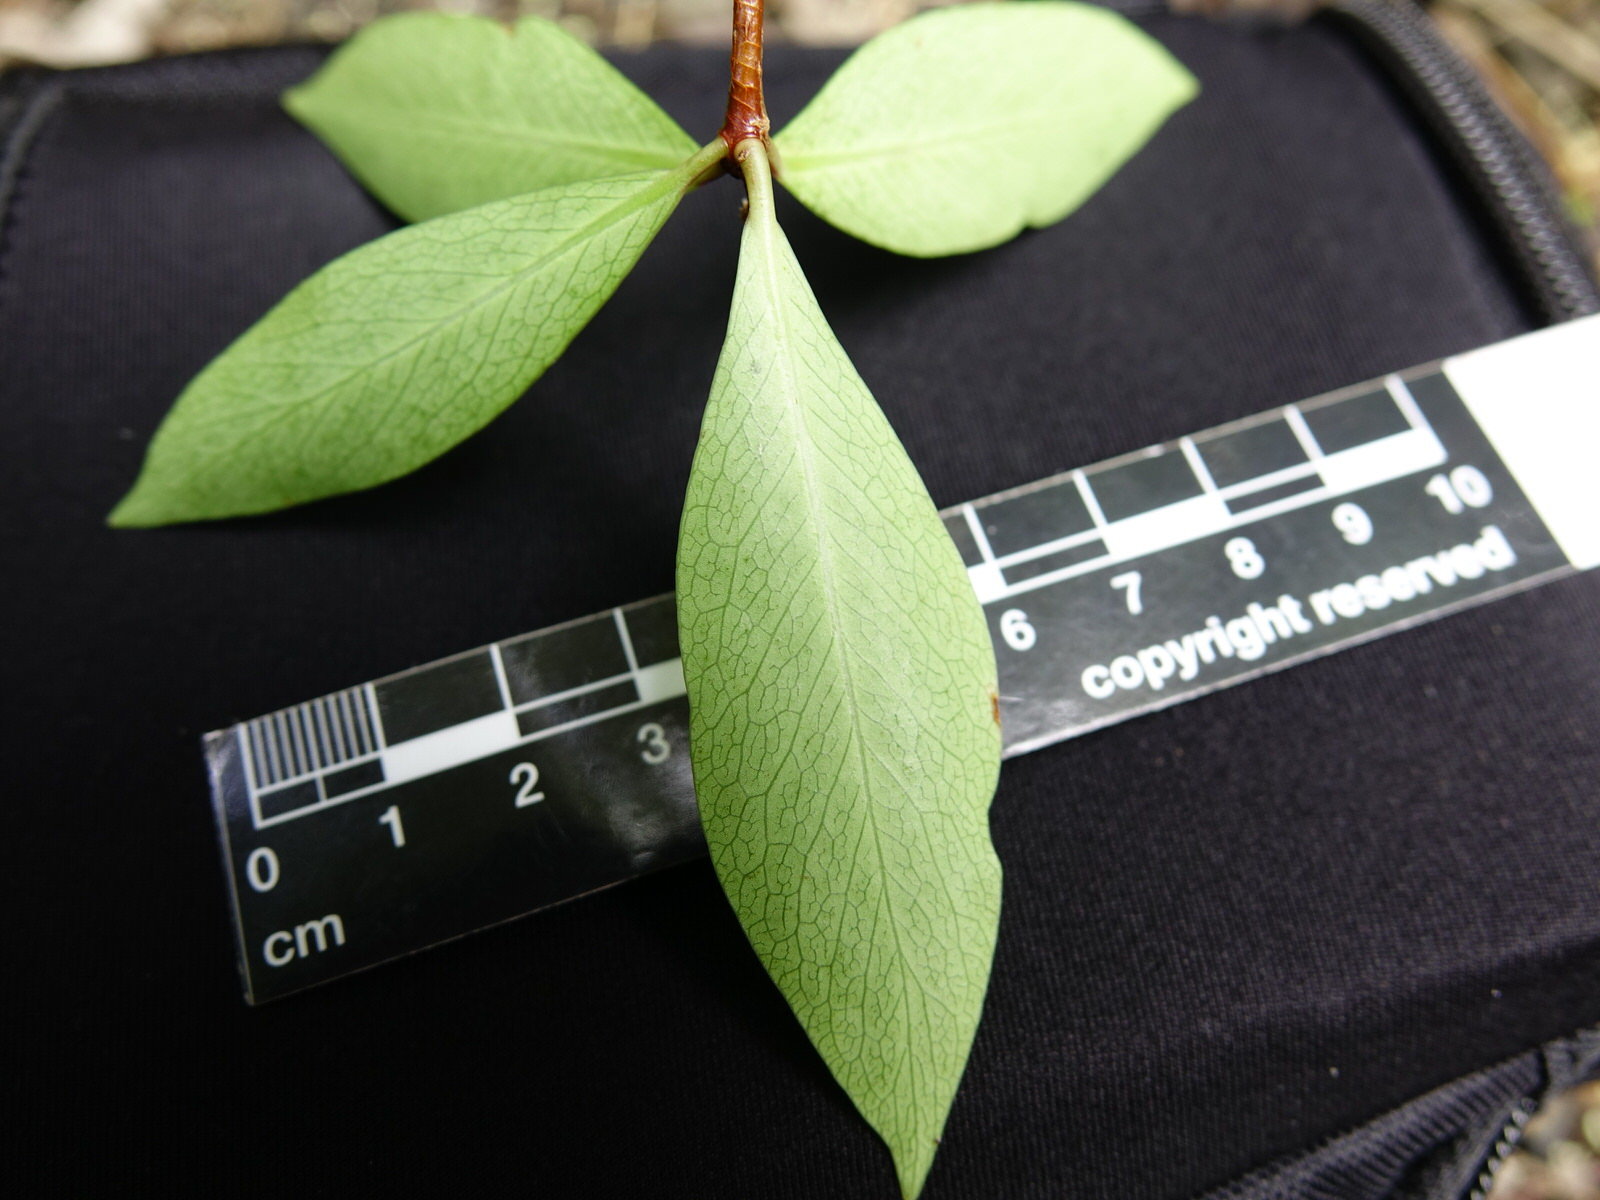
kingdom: Plantae
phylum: Tracheophyta
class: Magnoliopsida
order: Apiales
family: Pittosporaceae
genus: Pittosporum
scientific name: Pittosporum cornifolium
